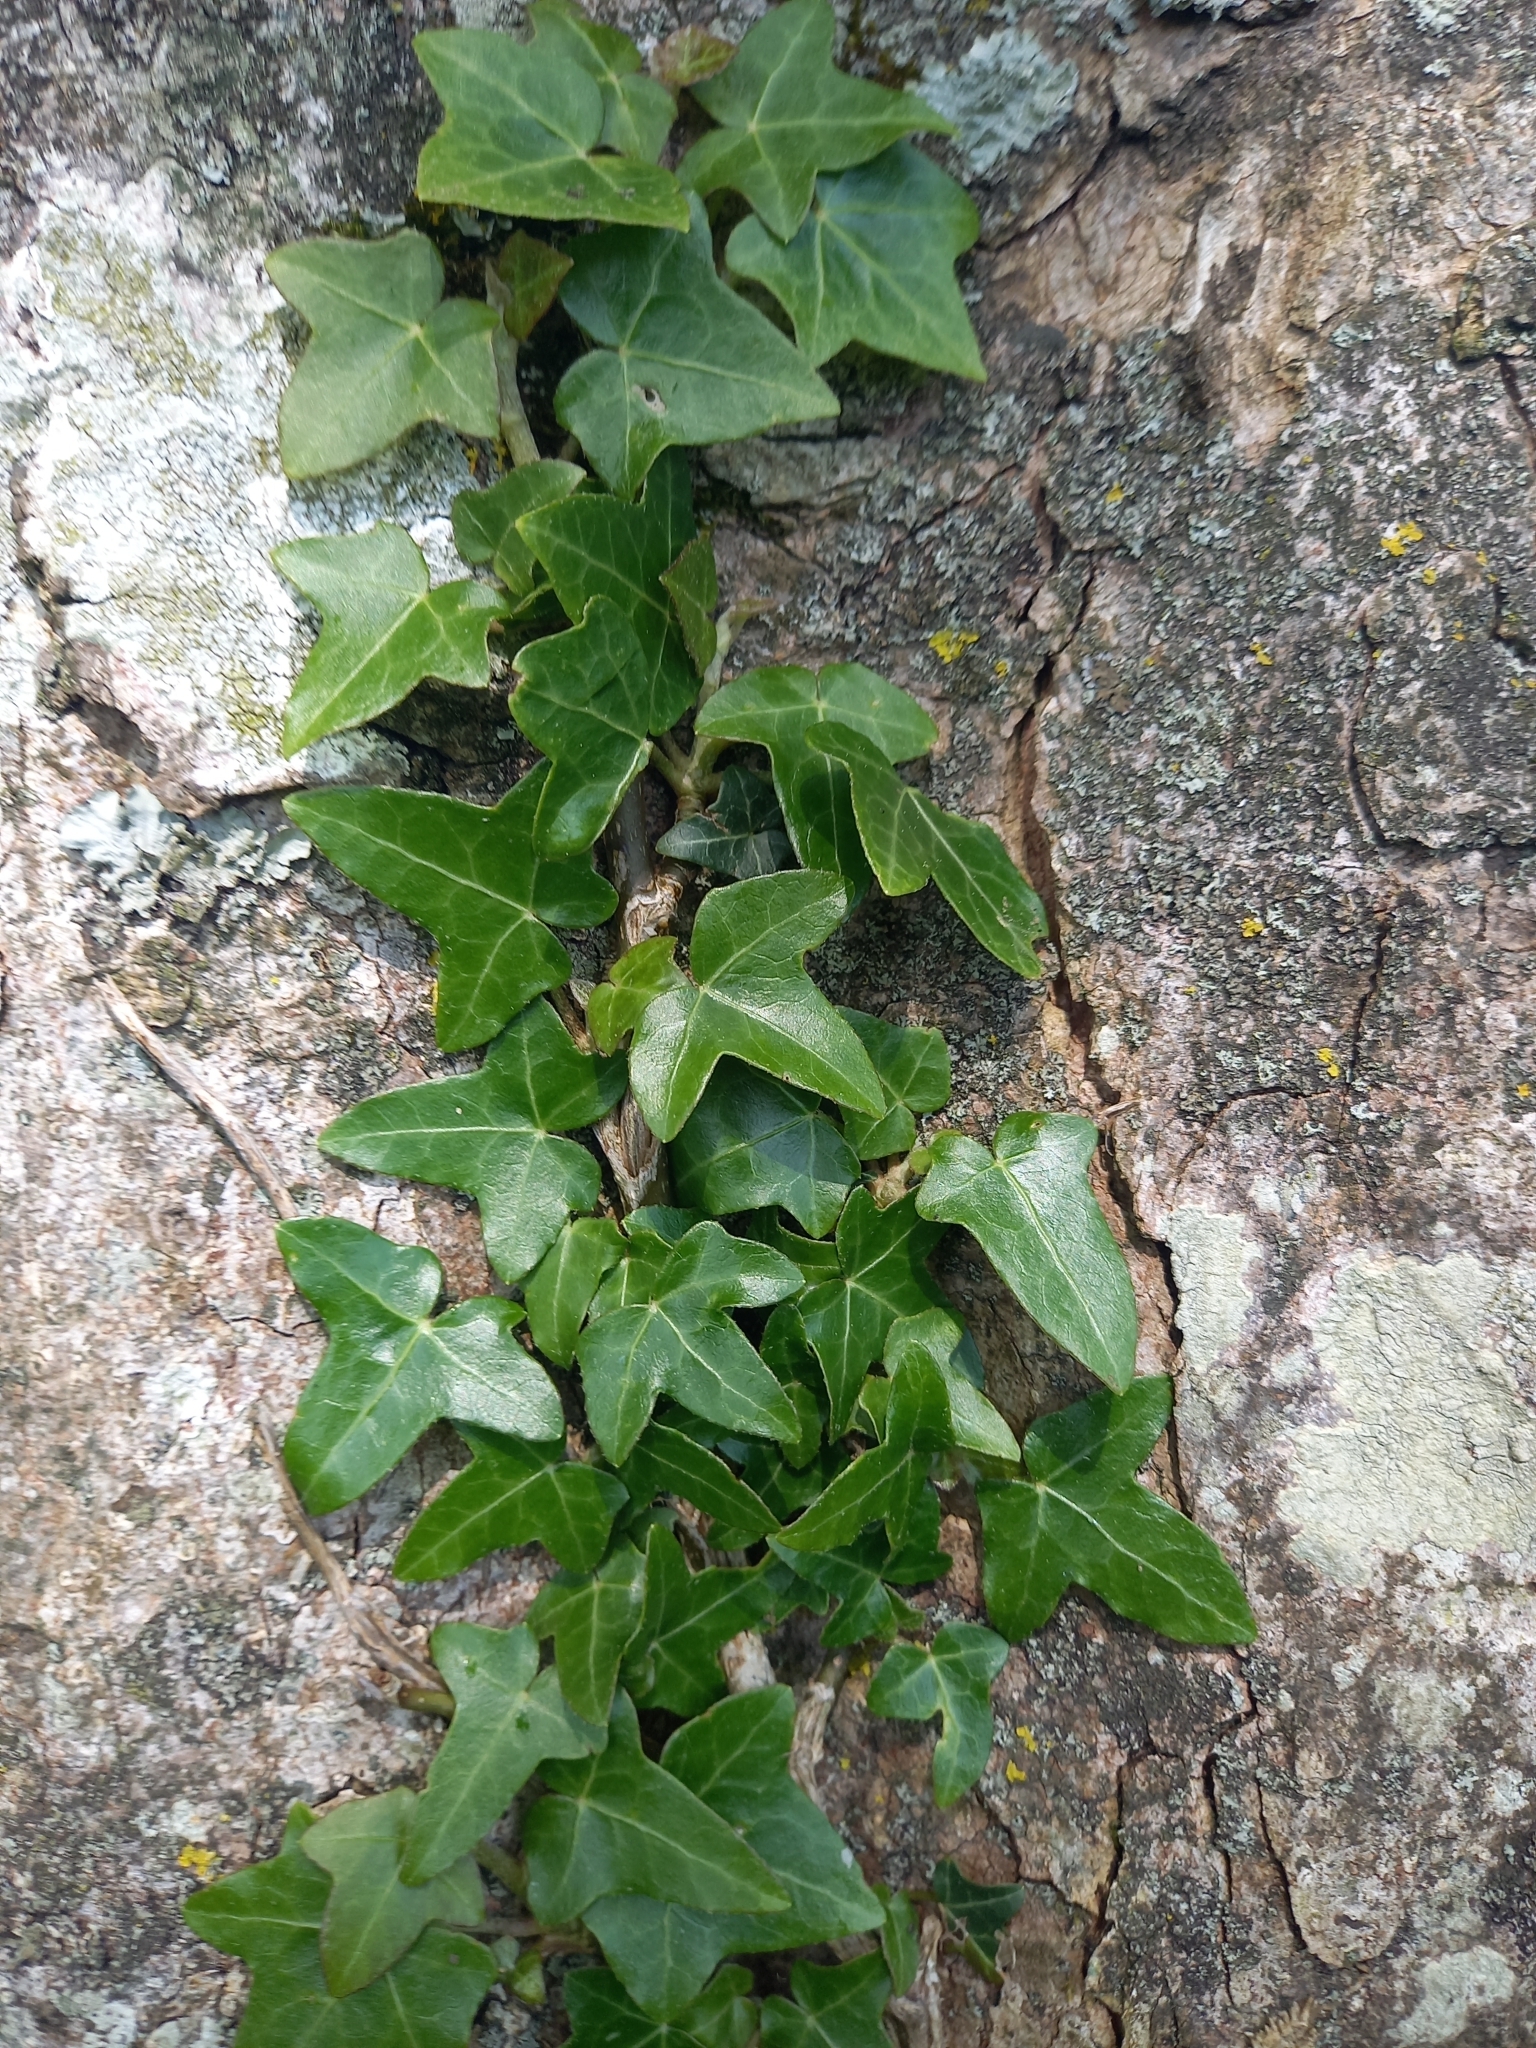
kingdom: Plantae
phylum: Tracheophyta
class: Magnoliopsida
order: Apiales
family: Araliaceae
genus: Hedera
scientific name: Hedera helix
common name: Ivy
